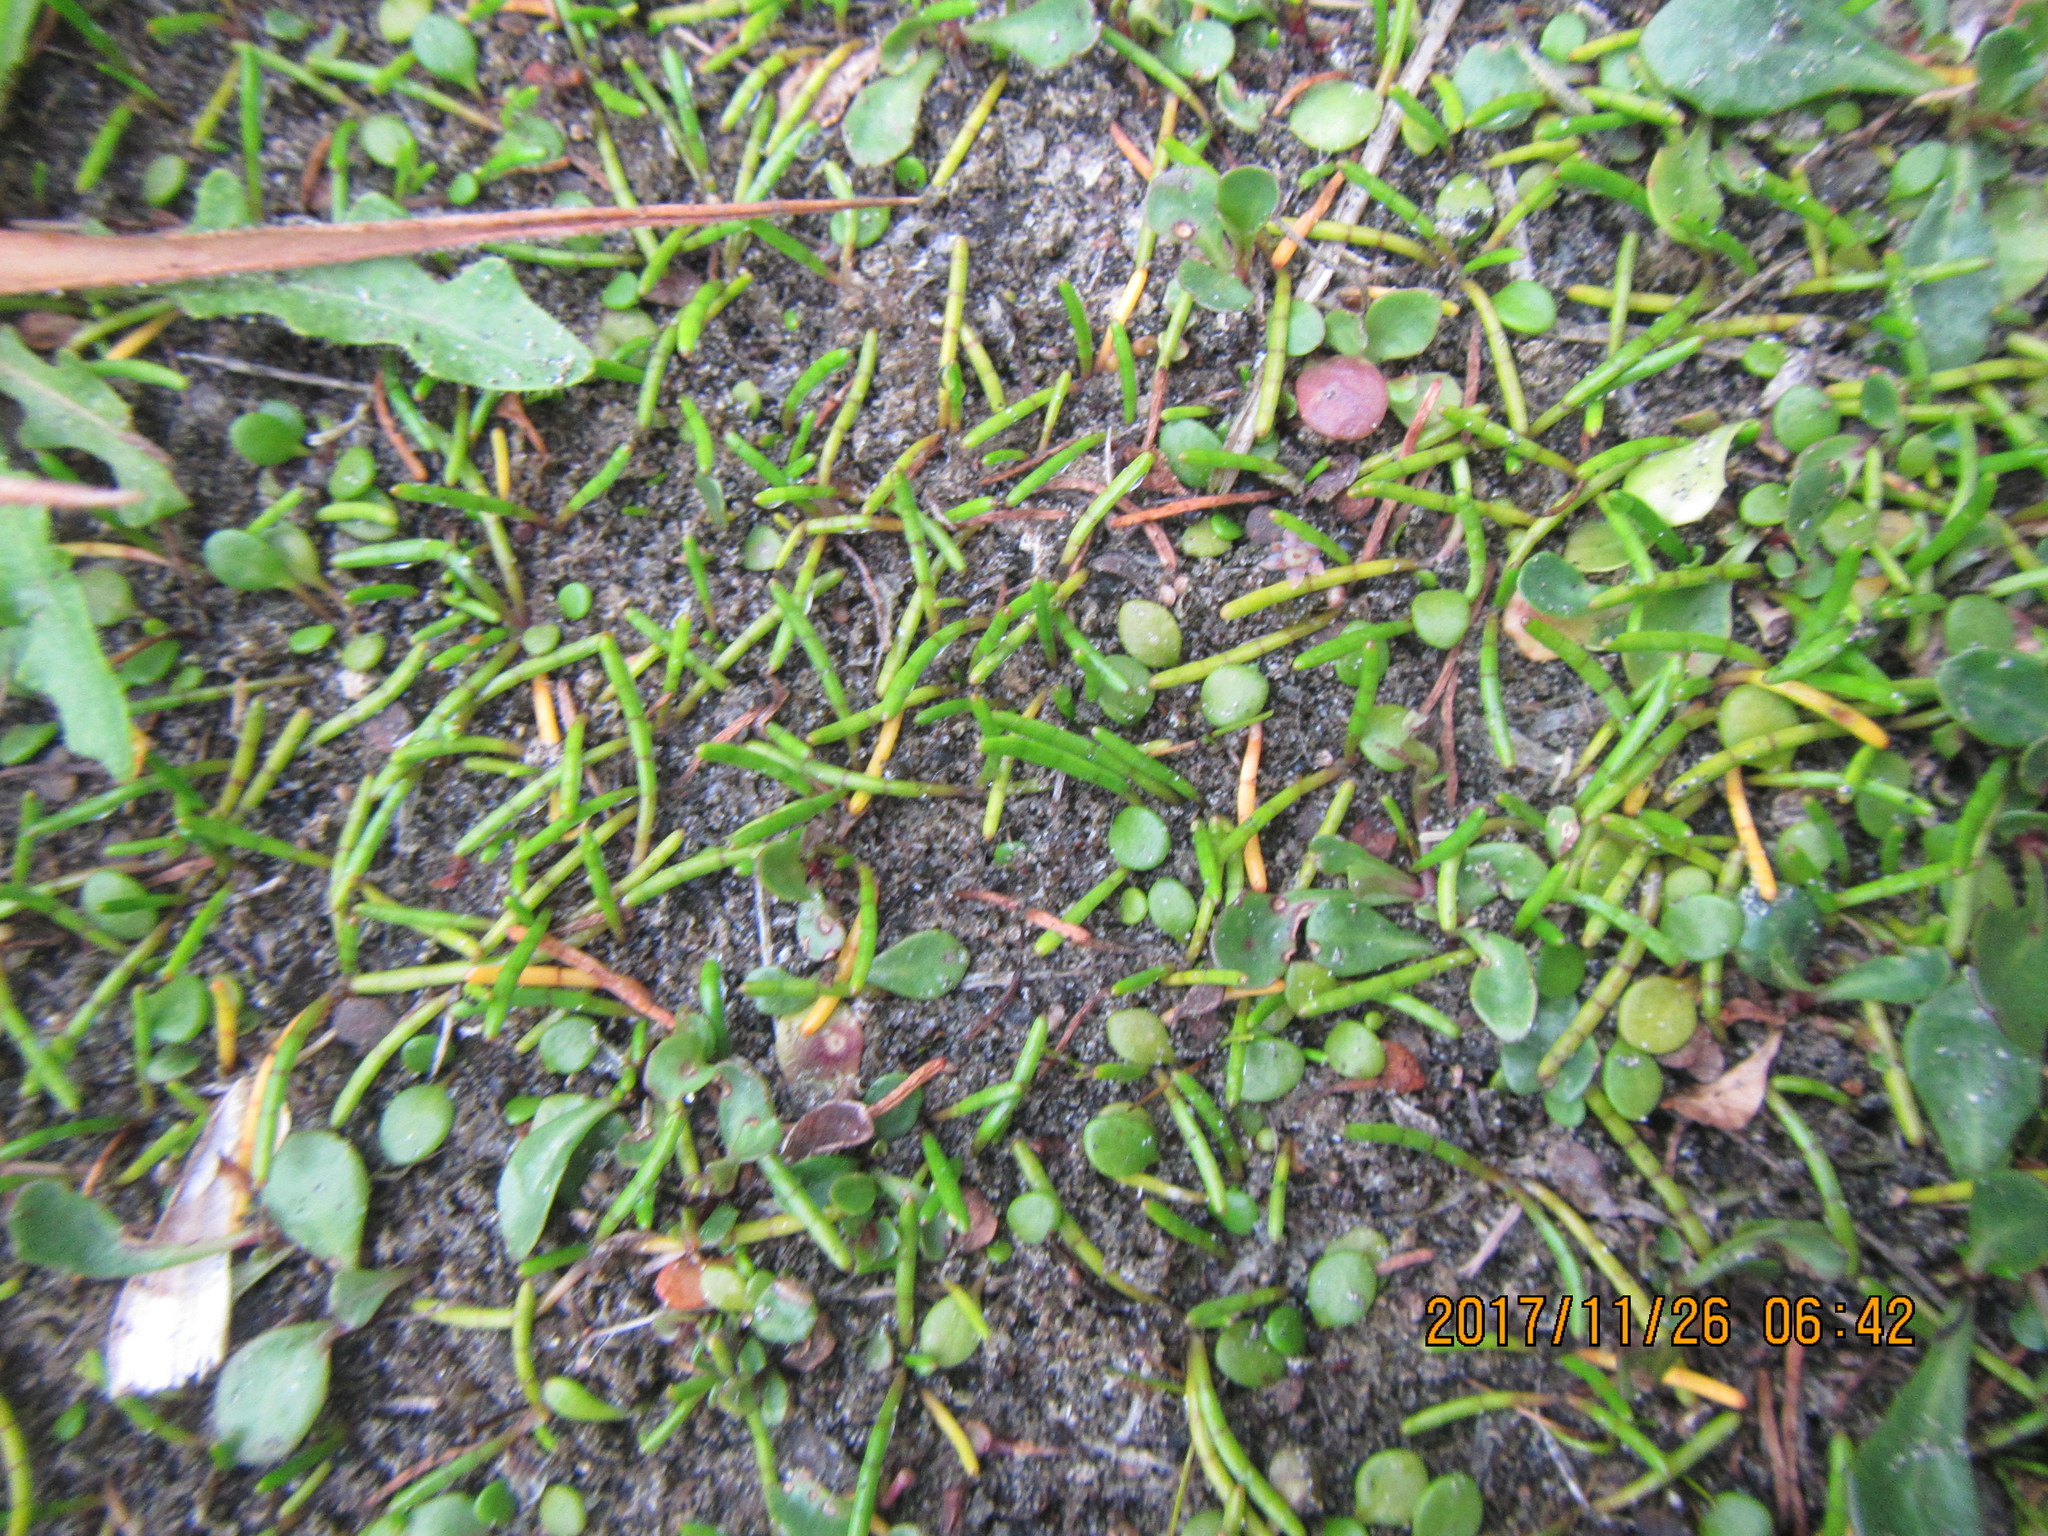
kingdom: Plantae
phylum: Tracheophyta
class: Magnoliopsida
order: Apiales
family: Apiaceae
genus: Lilaeopsis
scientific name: Lilaeopsis novae-zelandiae
